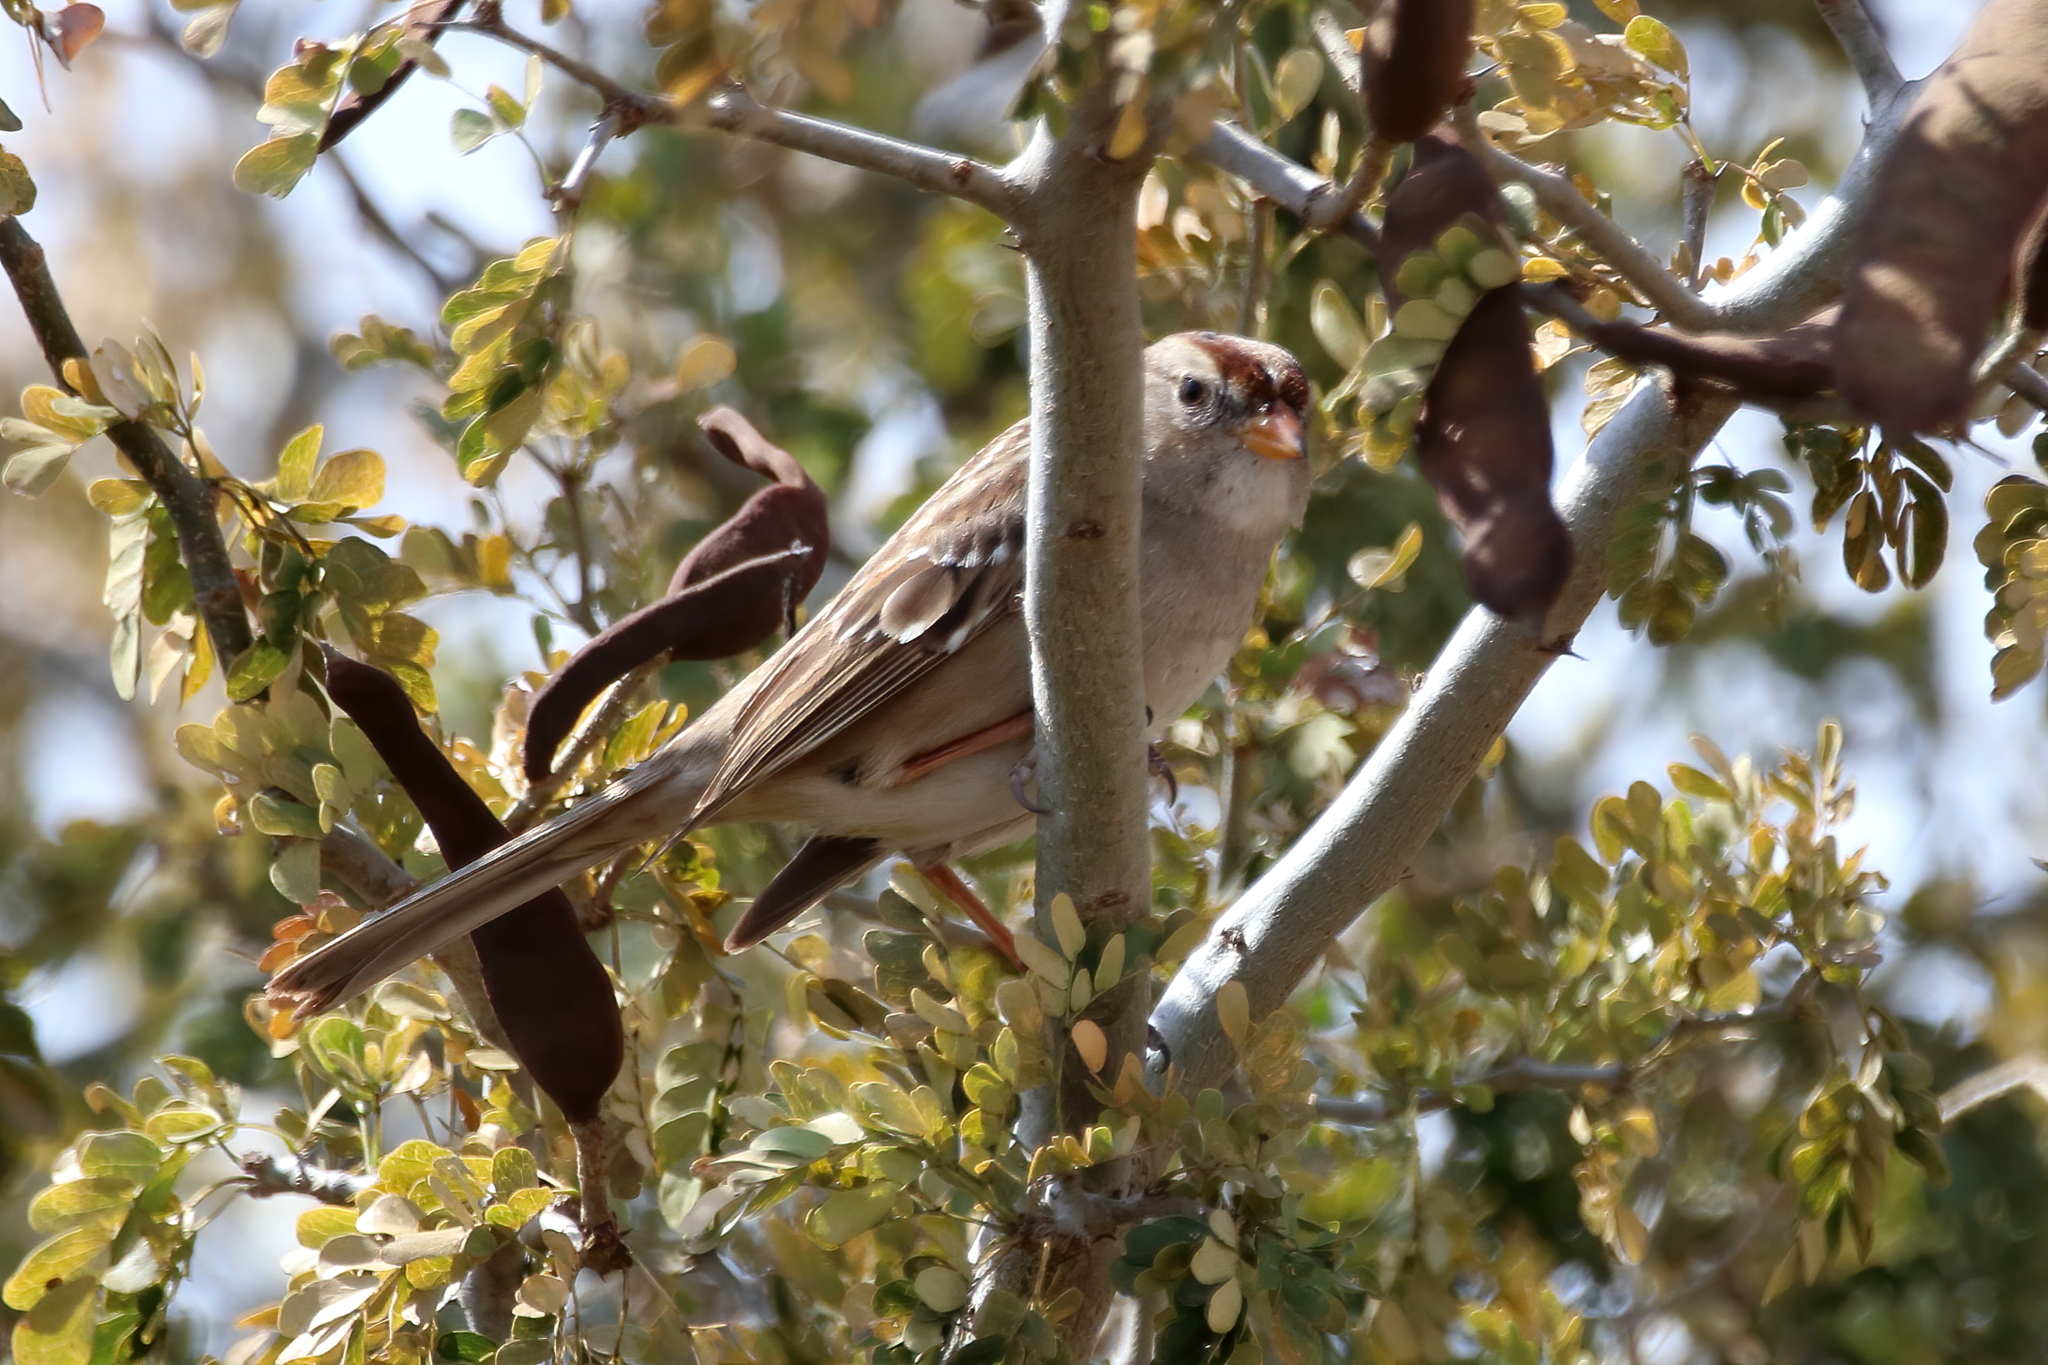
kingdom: Animalia
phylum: Chordata
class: Aves
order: Passeriformes
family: Passerellidae
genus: Zonotrichia
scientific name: Zonotrichia leucophrys
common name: White-crowned sparrow
